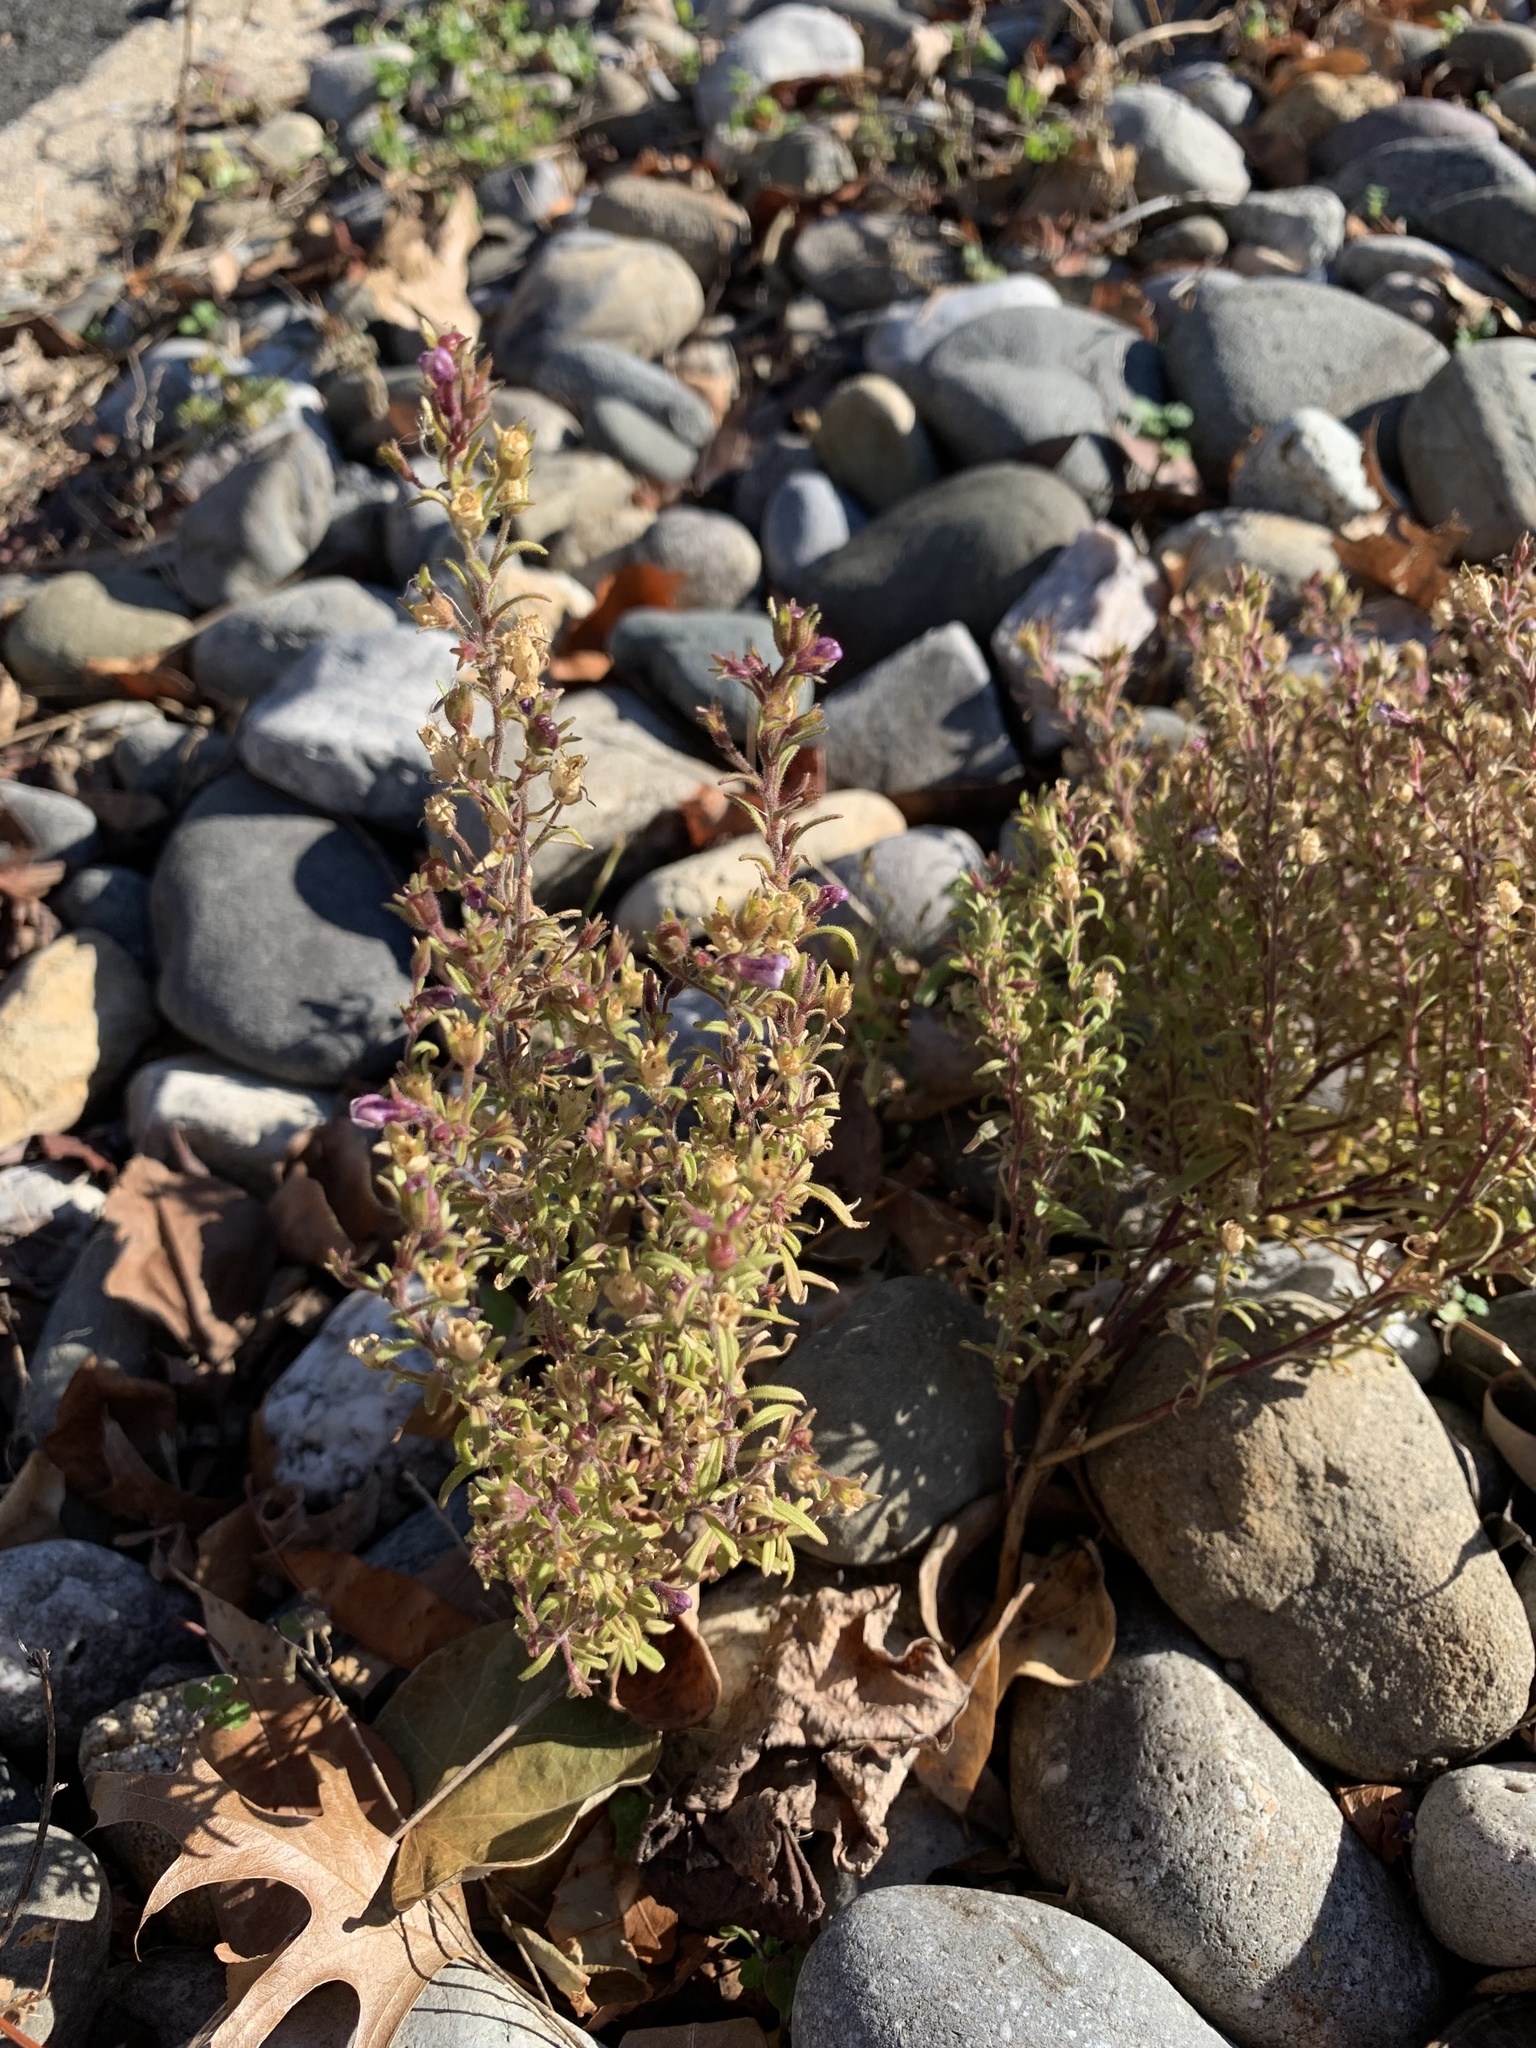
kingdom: Plantae
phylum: Tracheophyta
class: Magnoliopsida
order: Lamiales
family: Plantaginaceae
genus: Chaenorhinum
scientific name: Chaenorhinum minus
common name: Dwarf snapdragon
